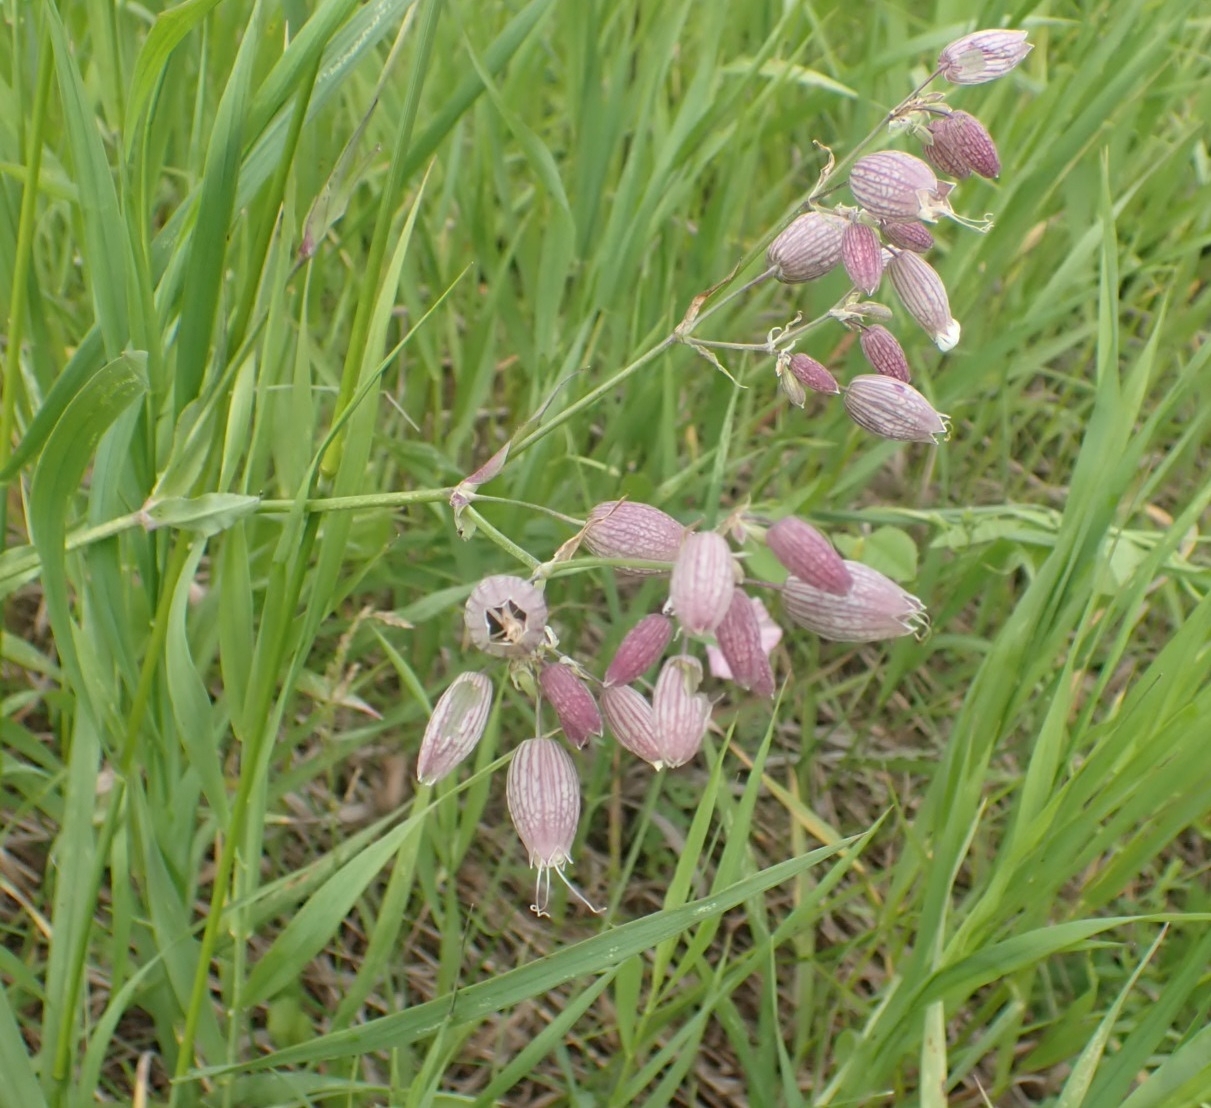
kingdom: Plantae
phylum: Tracheophyta
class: Magnoliopsida
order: Caryophyllales
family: Caryophyllaceae
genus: Silene
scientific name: Silene vulgaris
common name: Bladder campion
